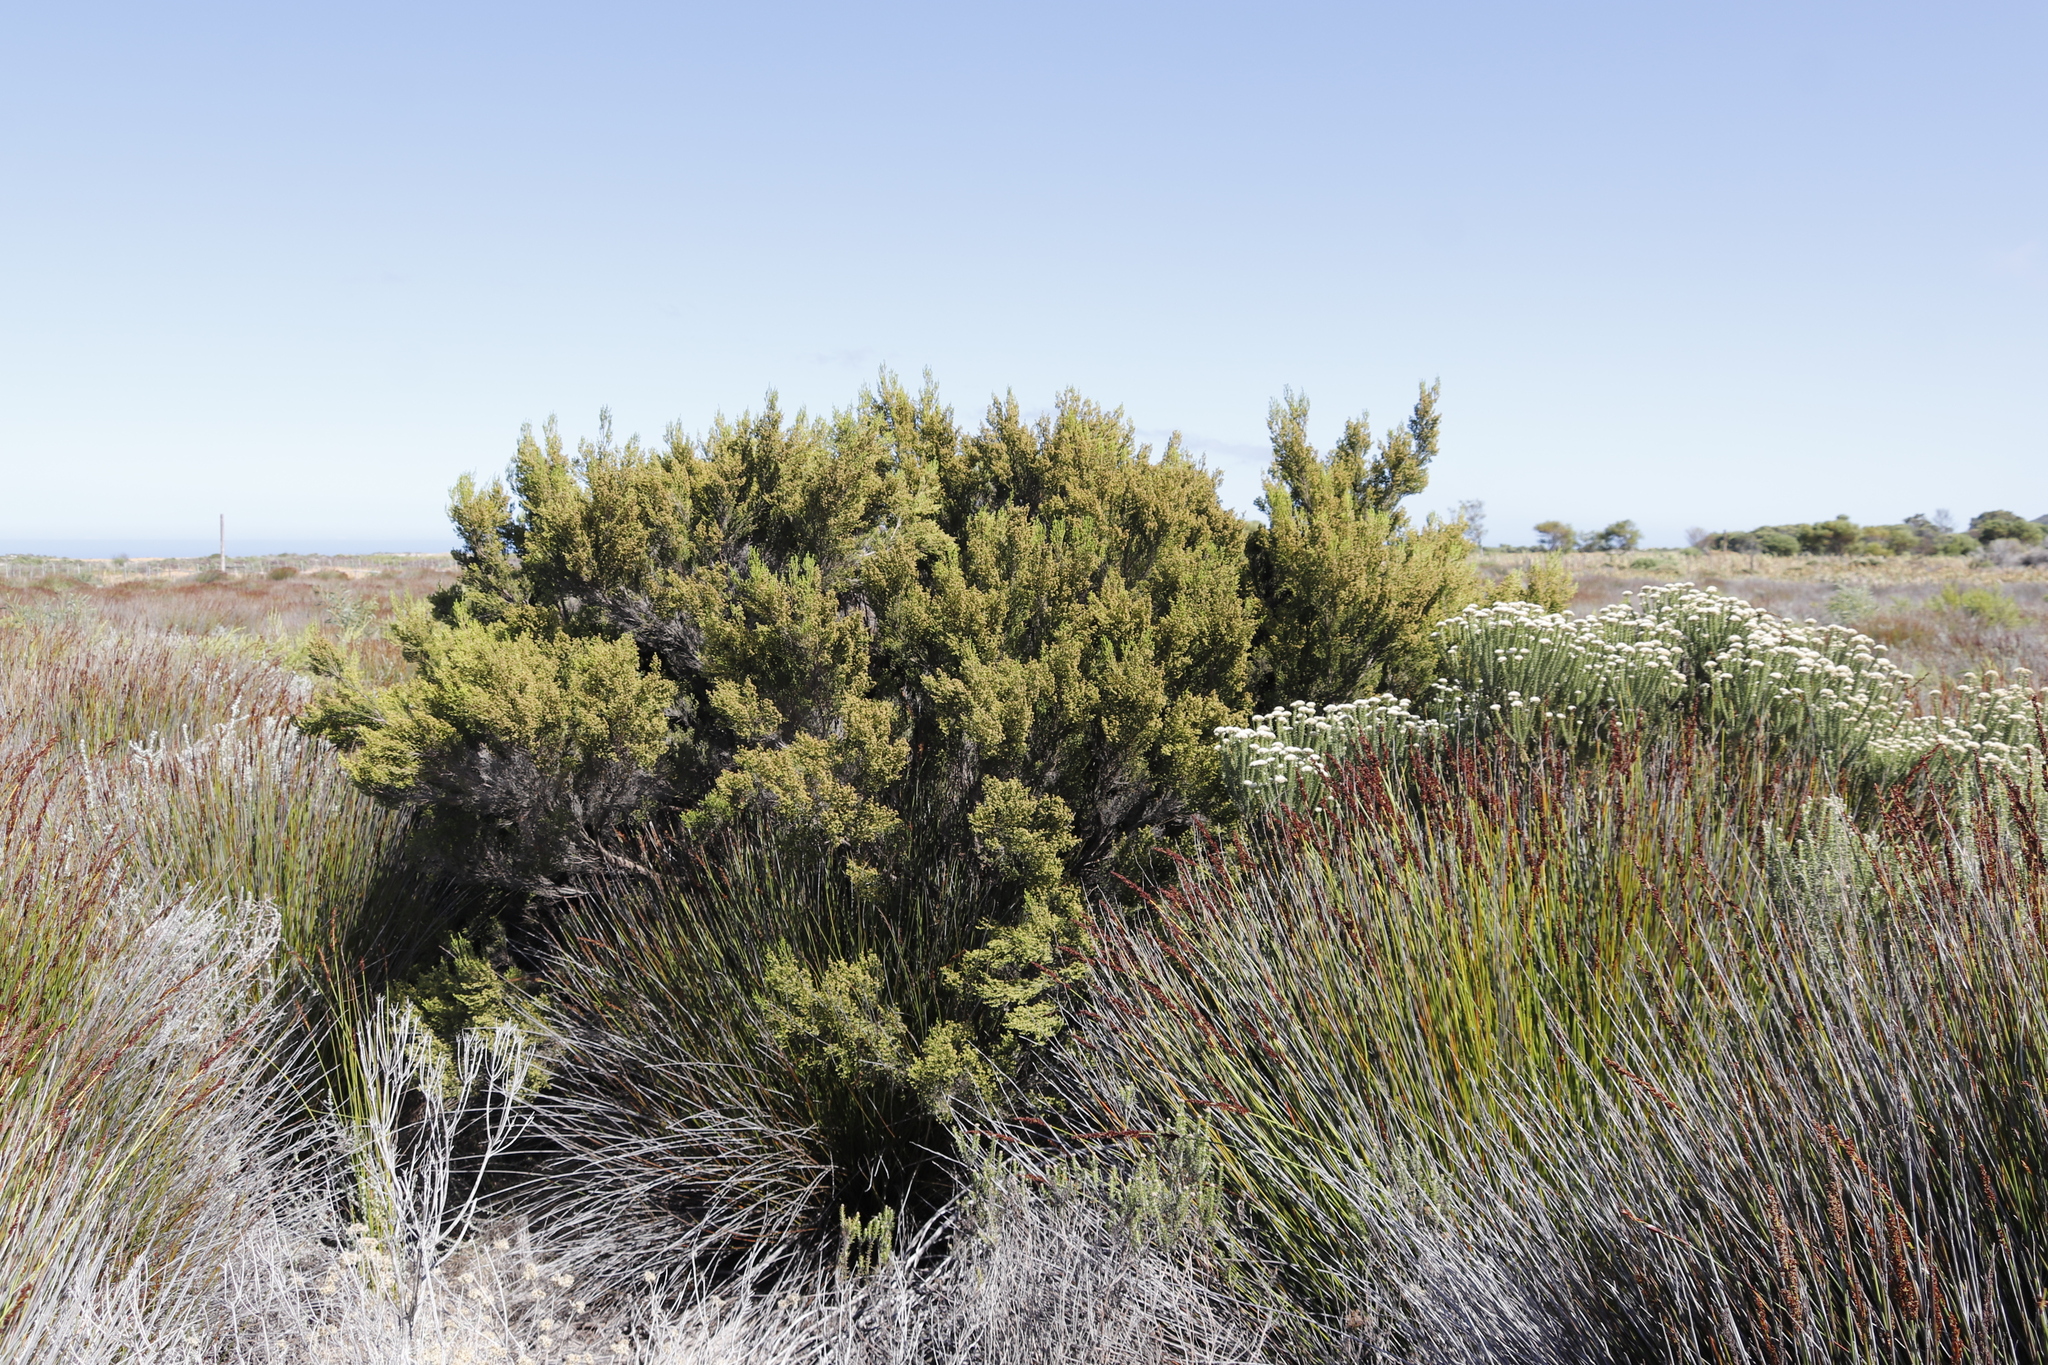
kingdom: Plantae
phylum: Tracheophyta
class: Magnoliopsida
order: Ericales
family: Ericaceae
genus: Erica
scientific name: Erica tristis
